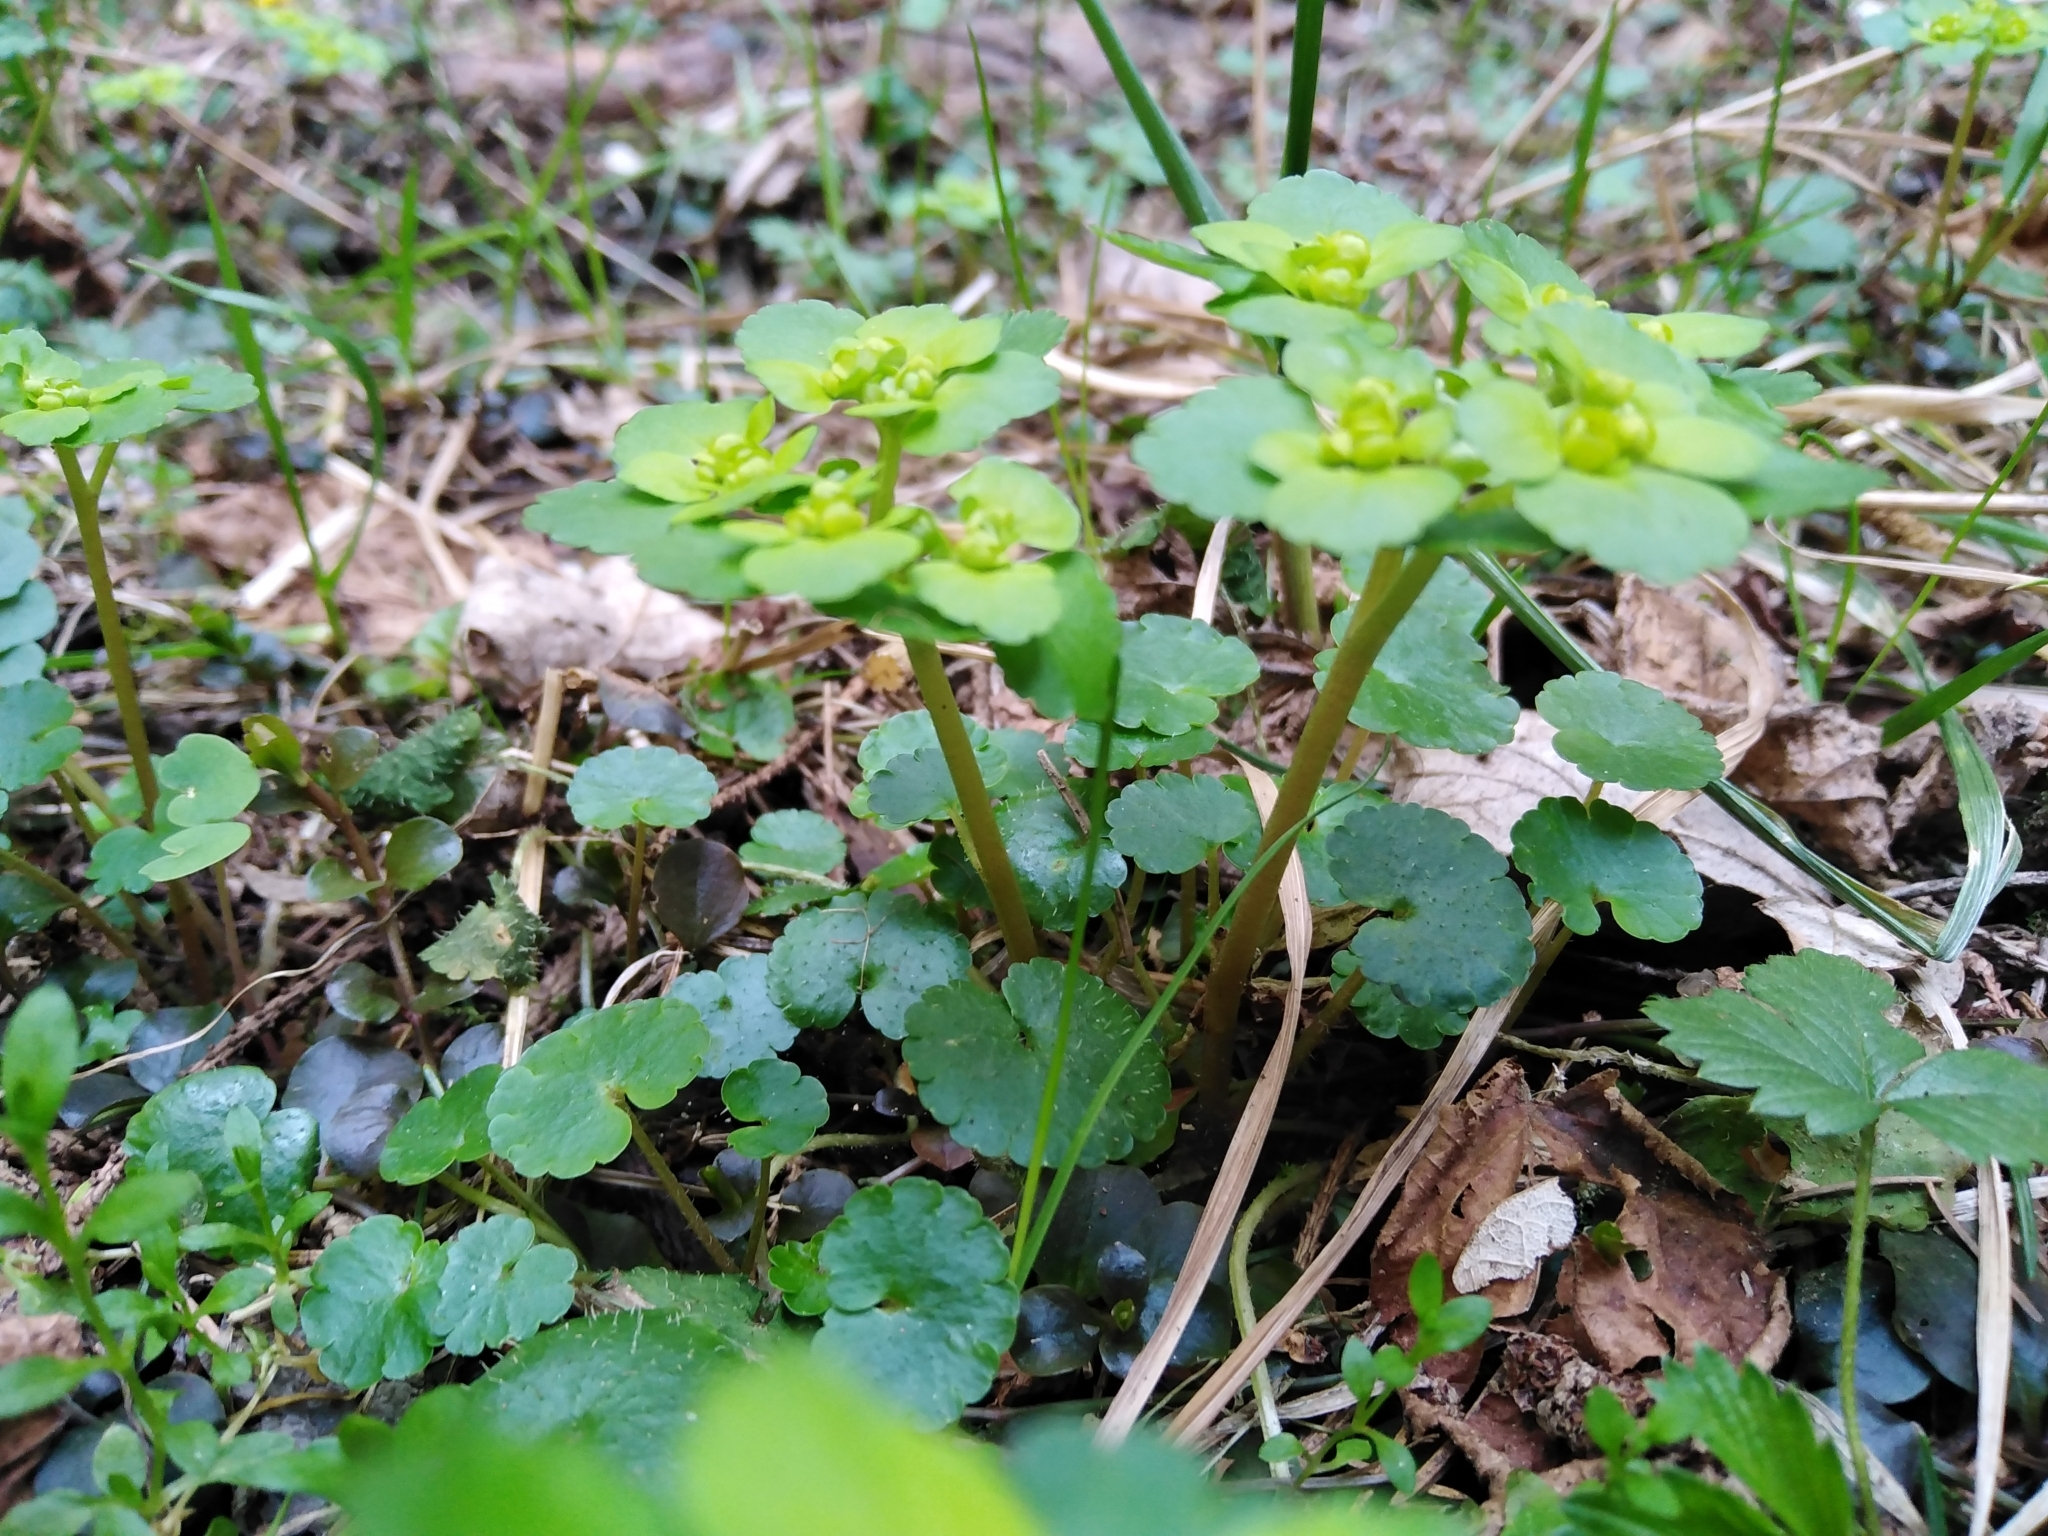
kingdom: Plantae
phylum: Tracheophyta
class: Magnoliopsida
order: Saxifragales
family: Saxifragaceae
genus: Chrysosplenium
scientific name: Chrysosplenium alternifolium
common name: Alternate-leaved golden-saxifrage
